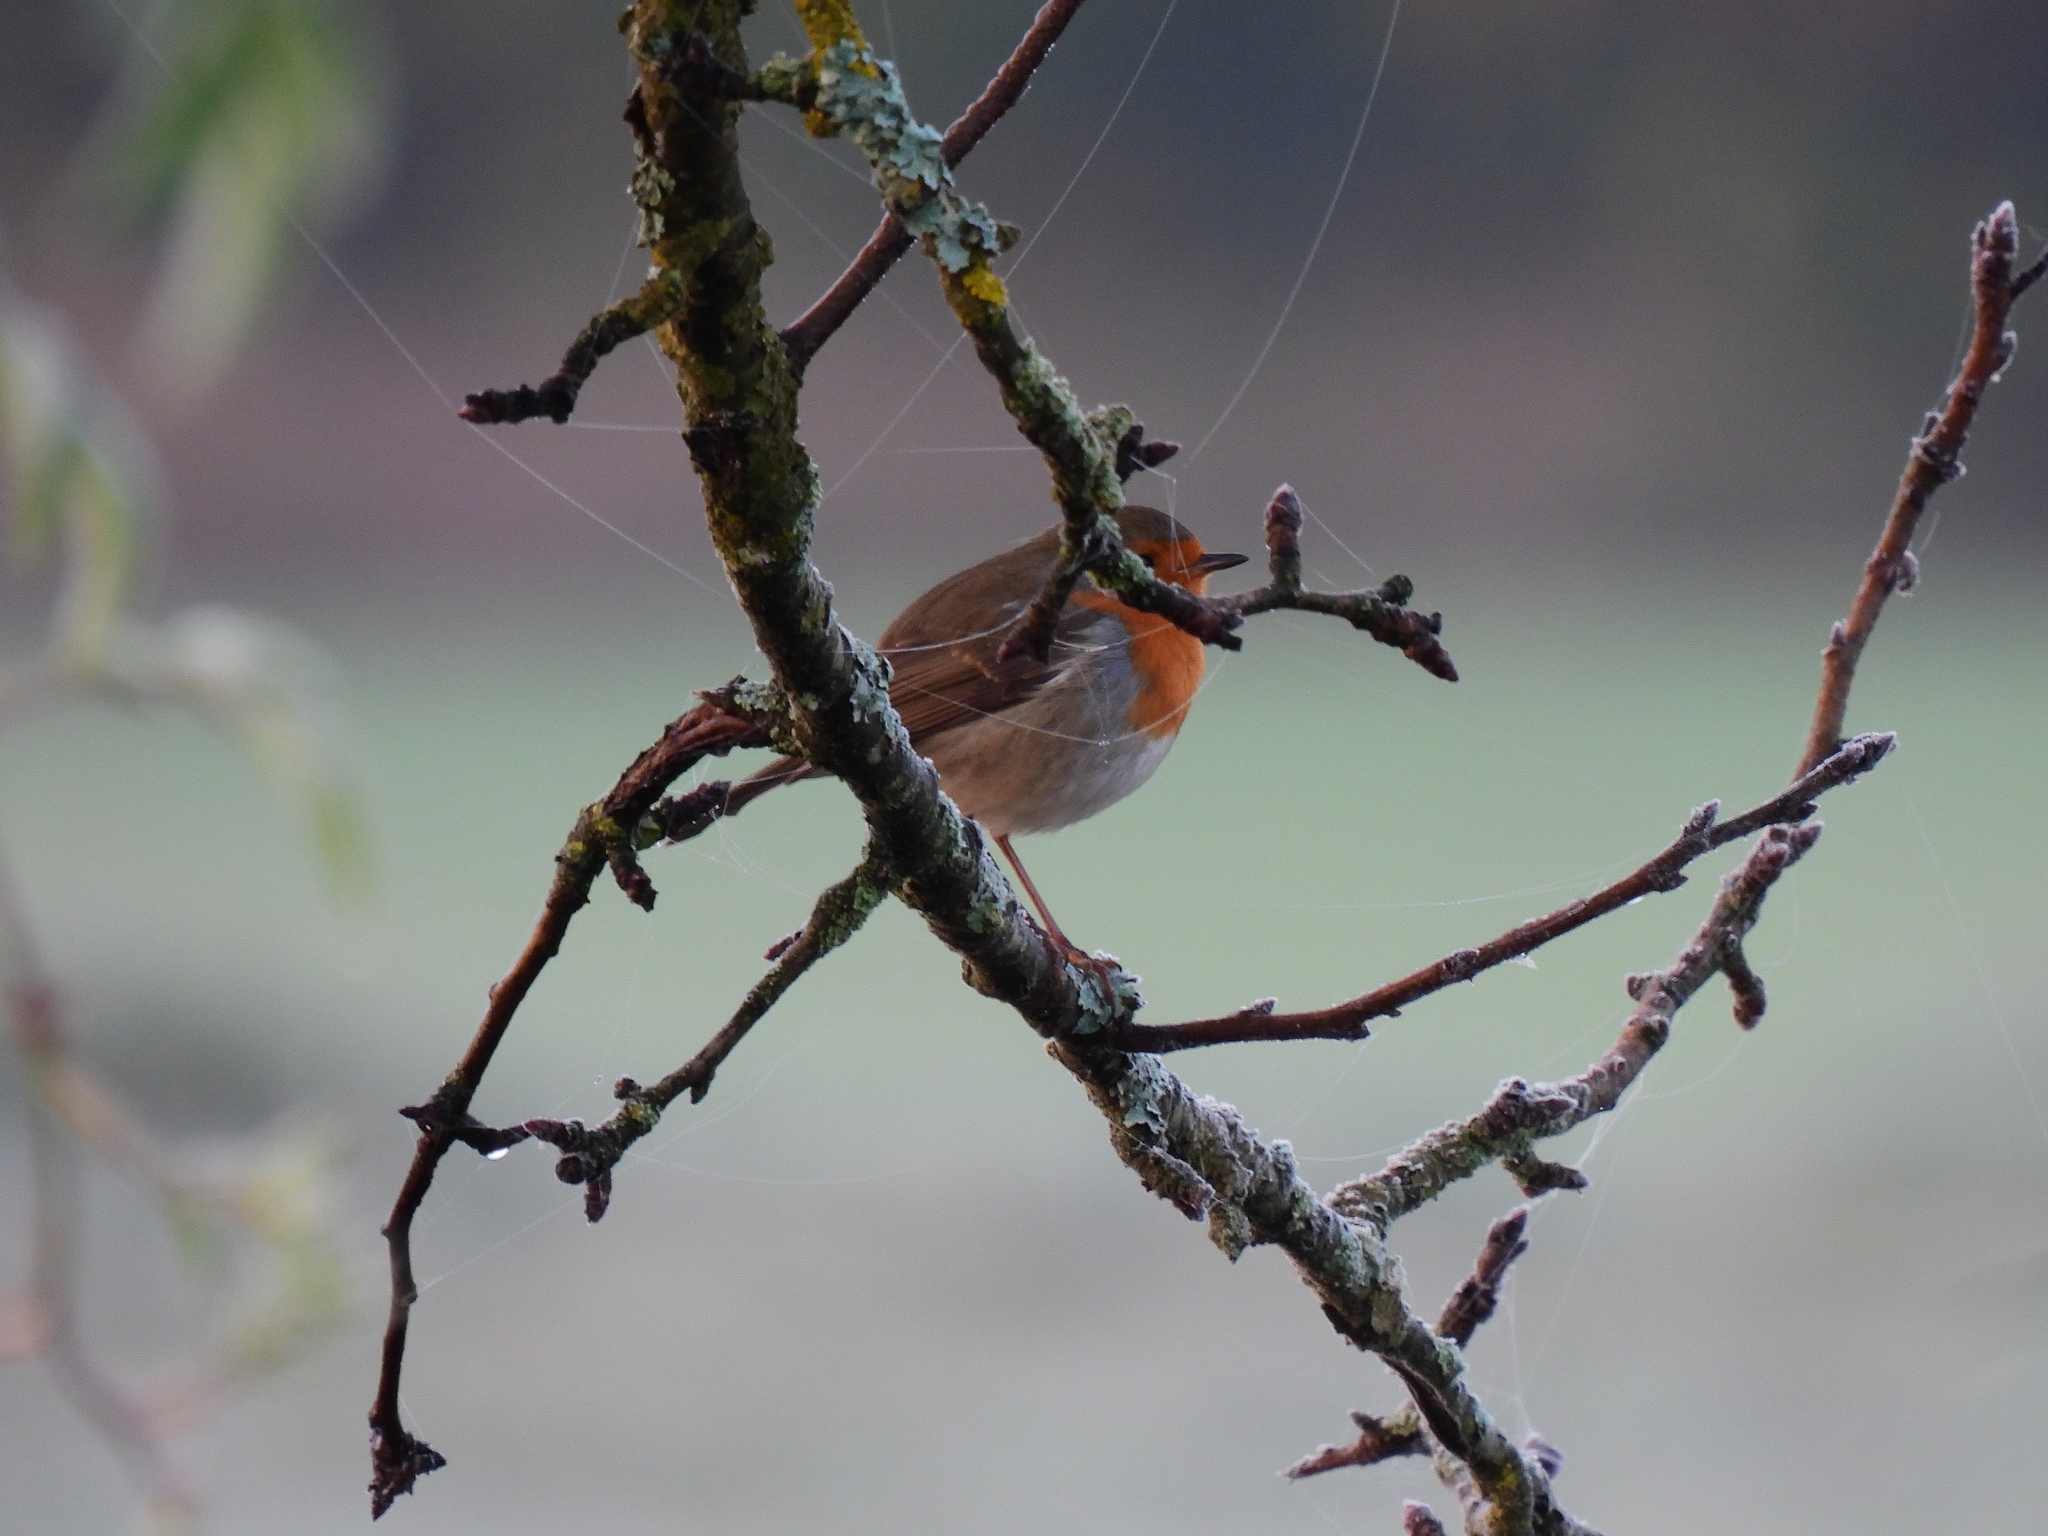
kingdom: Animalia
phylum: Chordata
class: Aves
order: Passeriformes
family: Muscicapidae
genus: Erithacus
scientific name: Erithacus rubecula
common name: European robin
